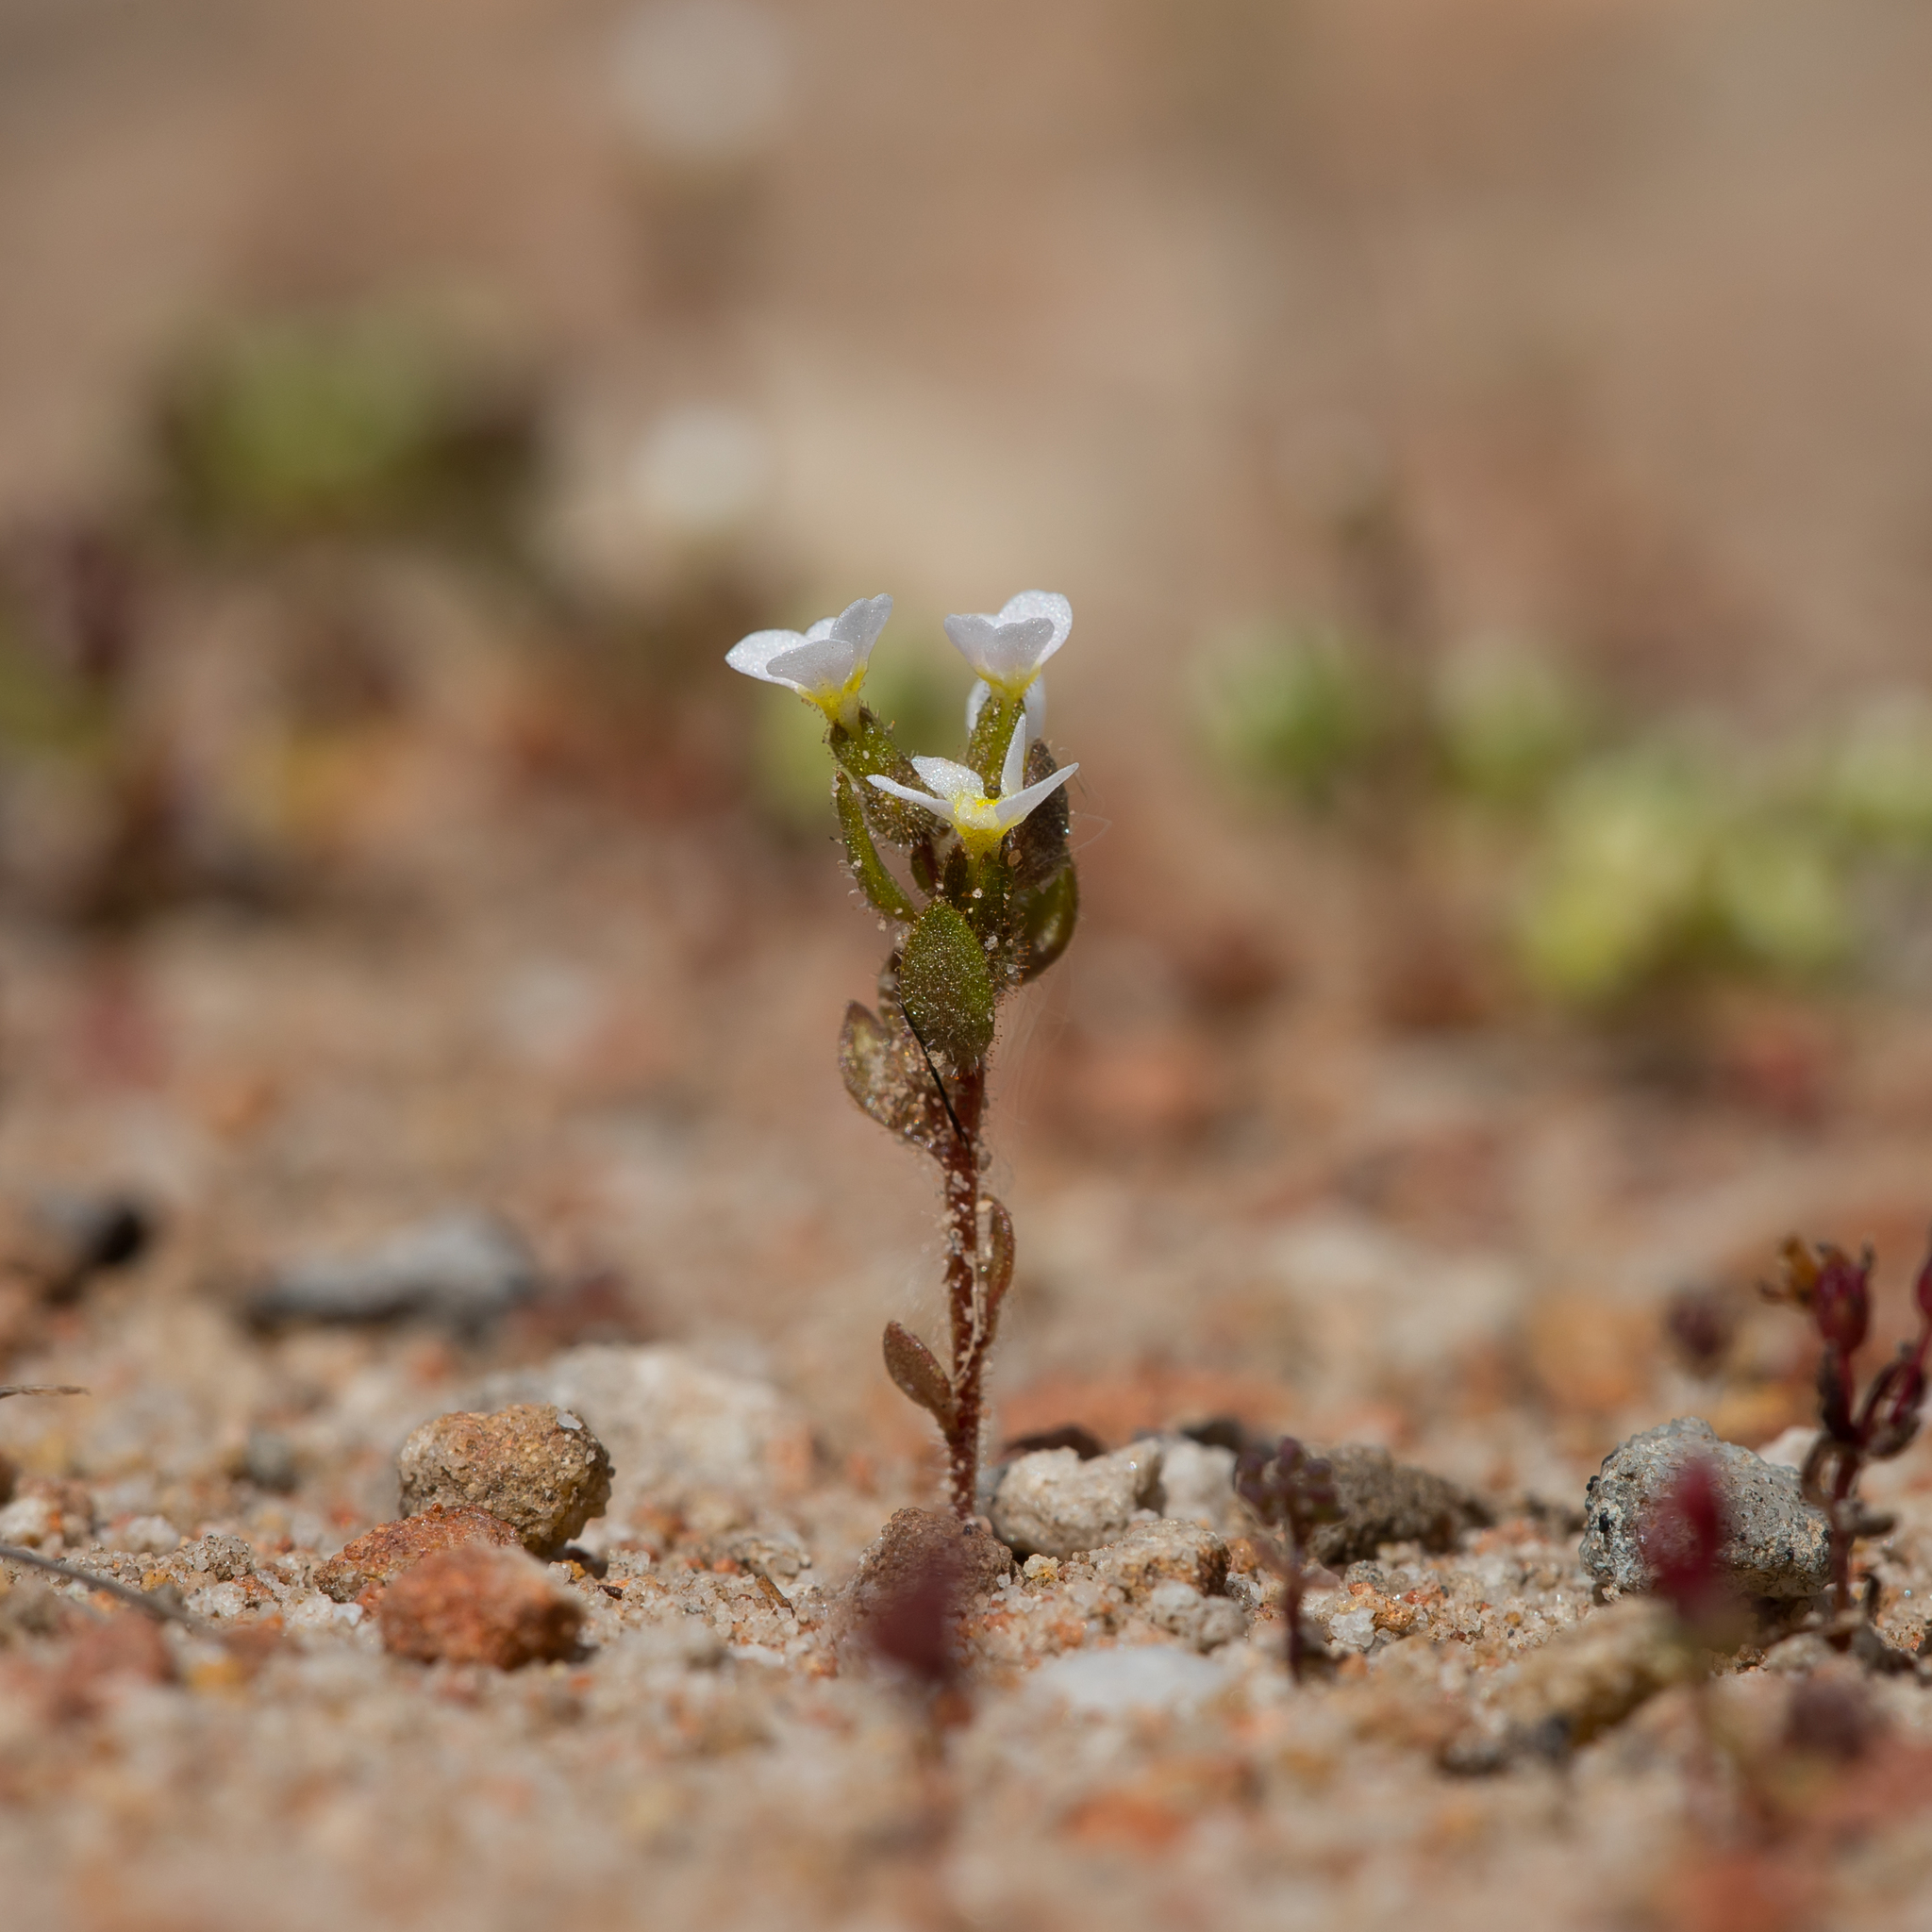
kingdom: Plantae
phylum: Tracheophyta
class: Magnoliopsida
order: Asterales
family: Stylidiaceae
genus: Levenhookia
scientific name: Levenhookia dubia
